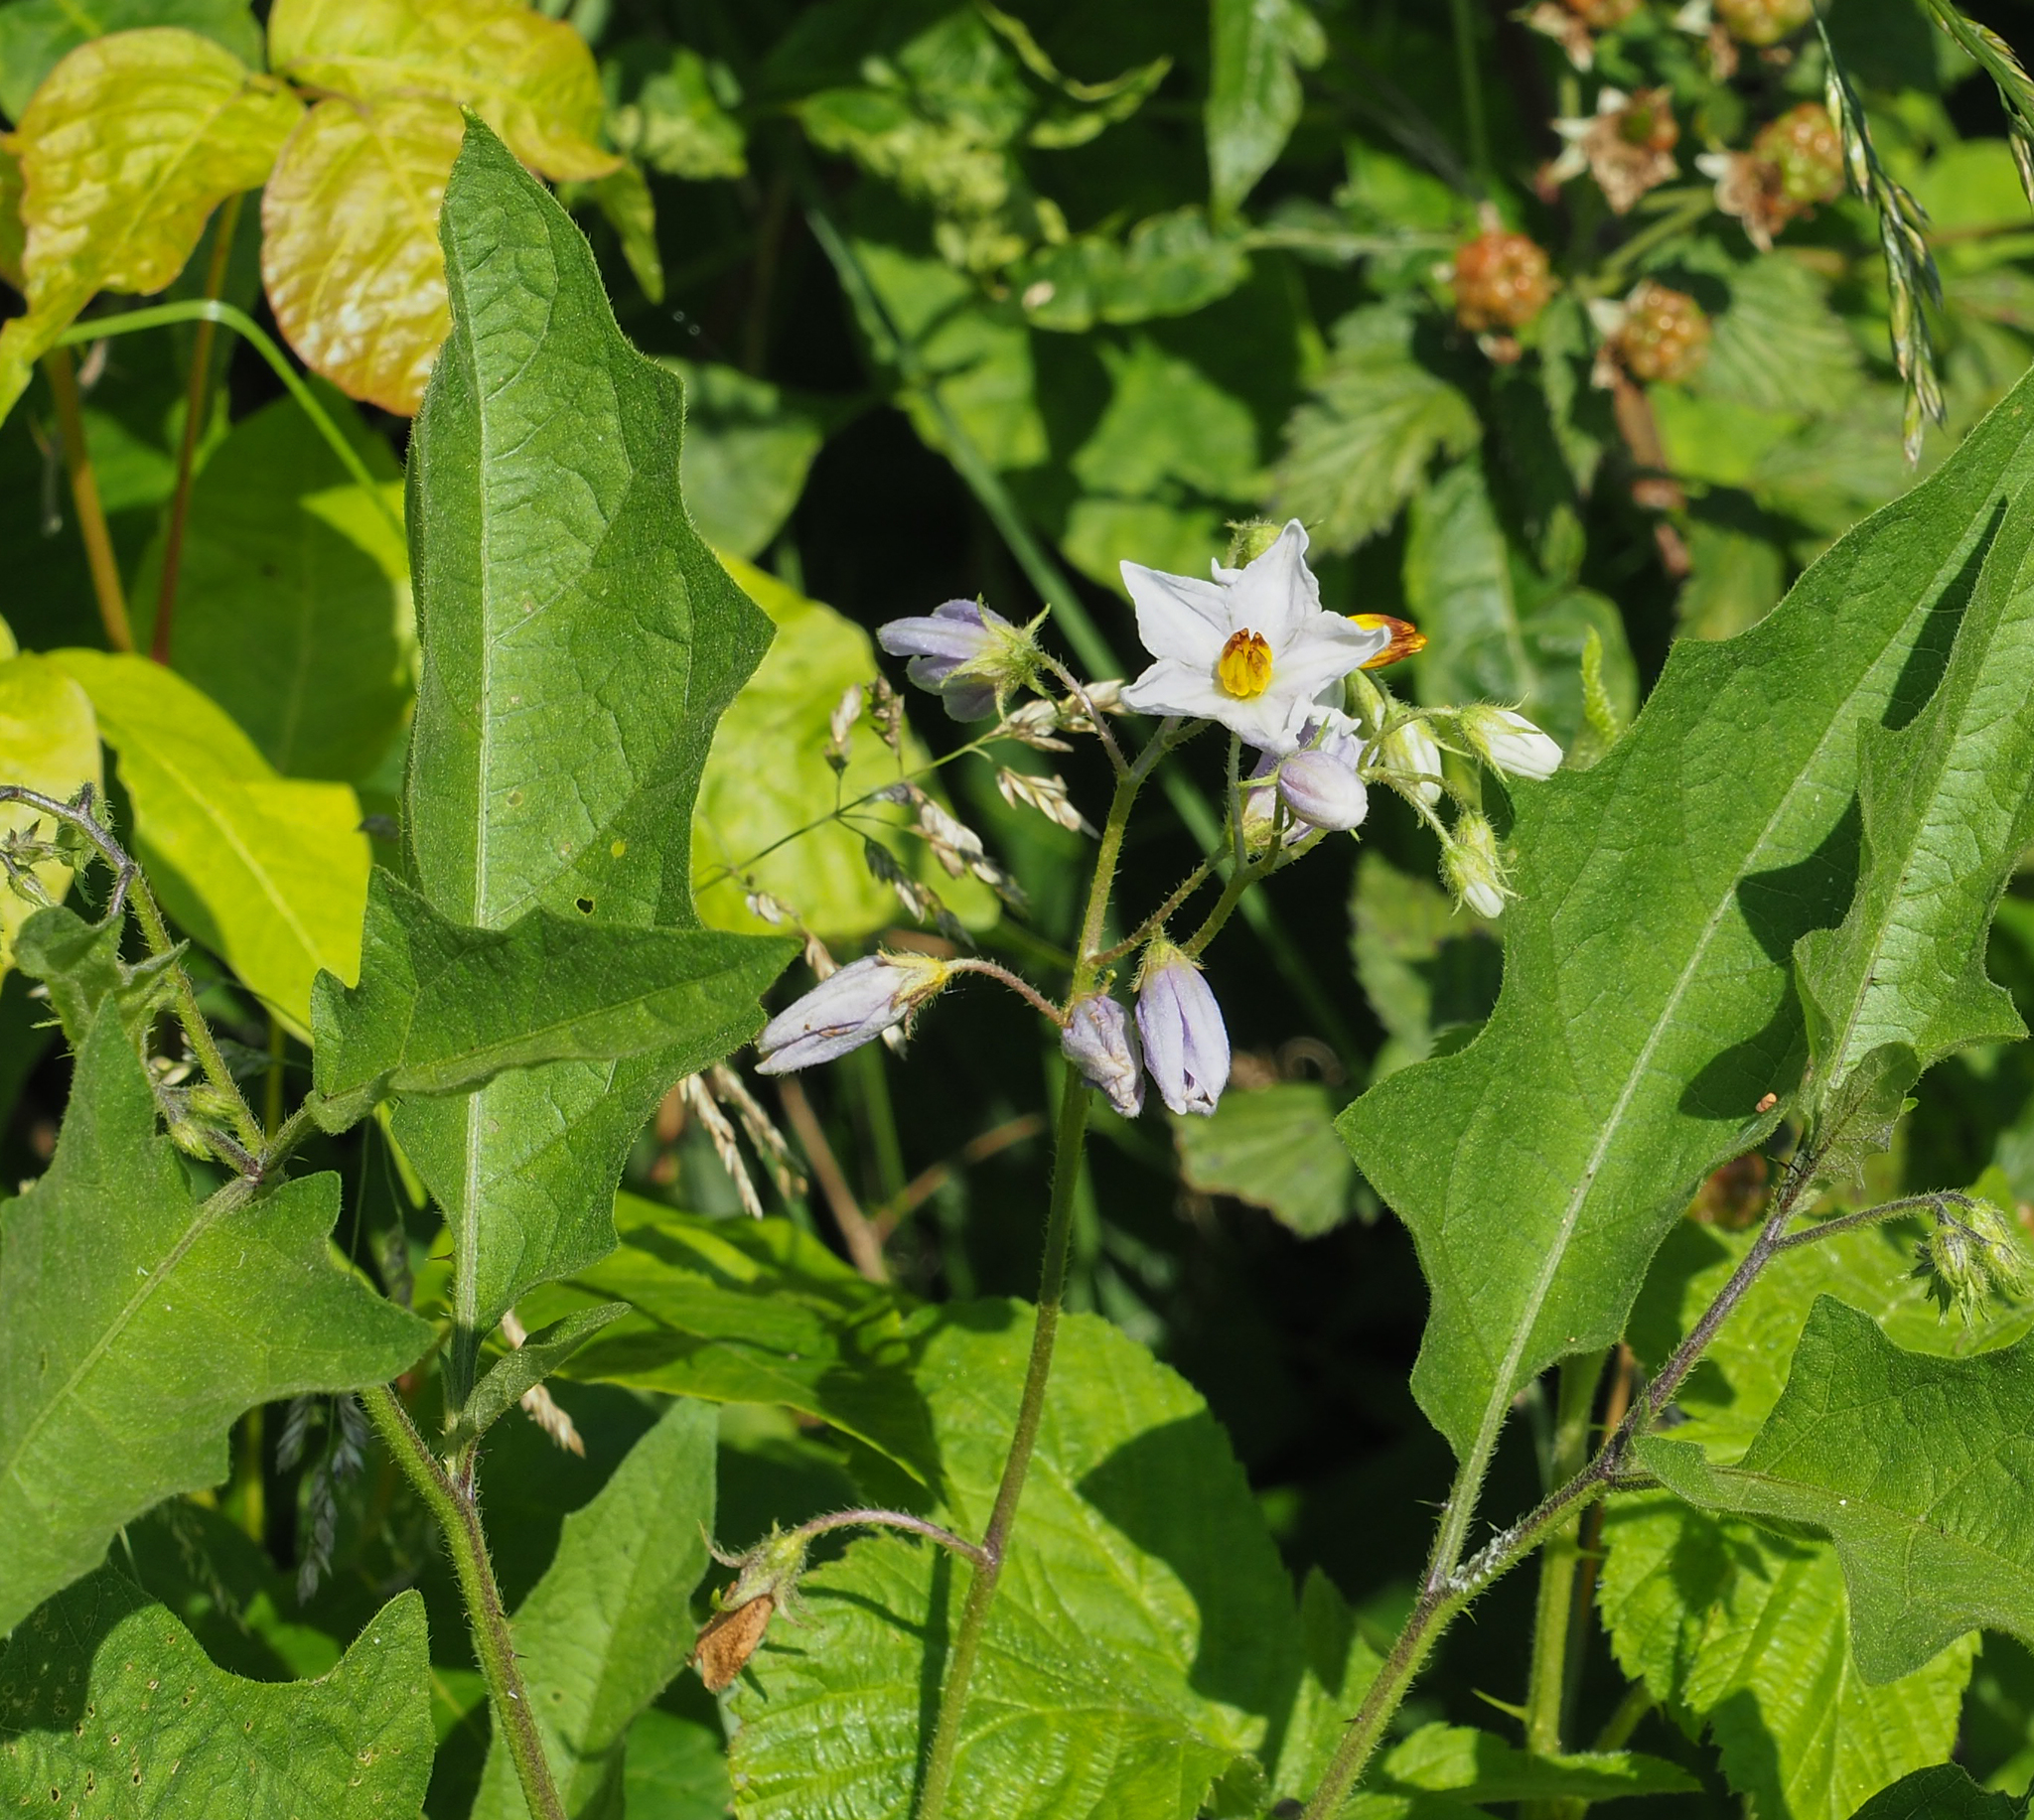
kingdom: Plantae
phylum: Tracheophyta
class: Magnoliopsida
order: Solanales
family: Solanaceae
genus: Solanum
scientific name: Solanum carolinense
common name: Horse-nettle
